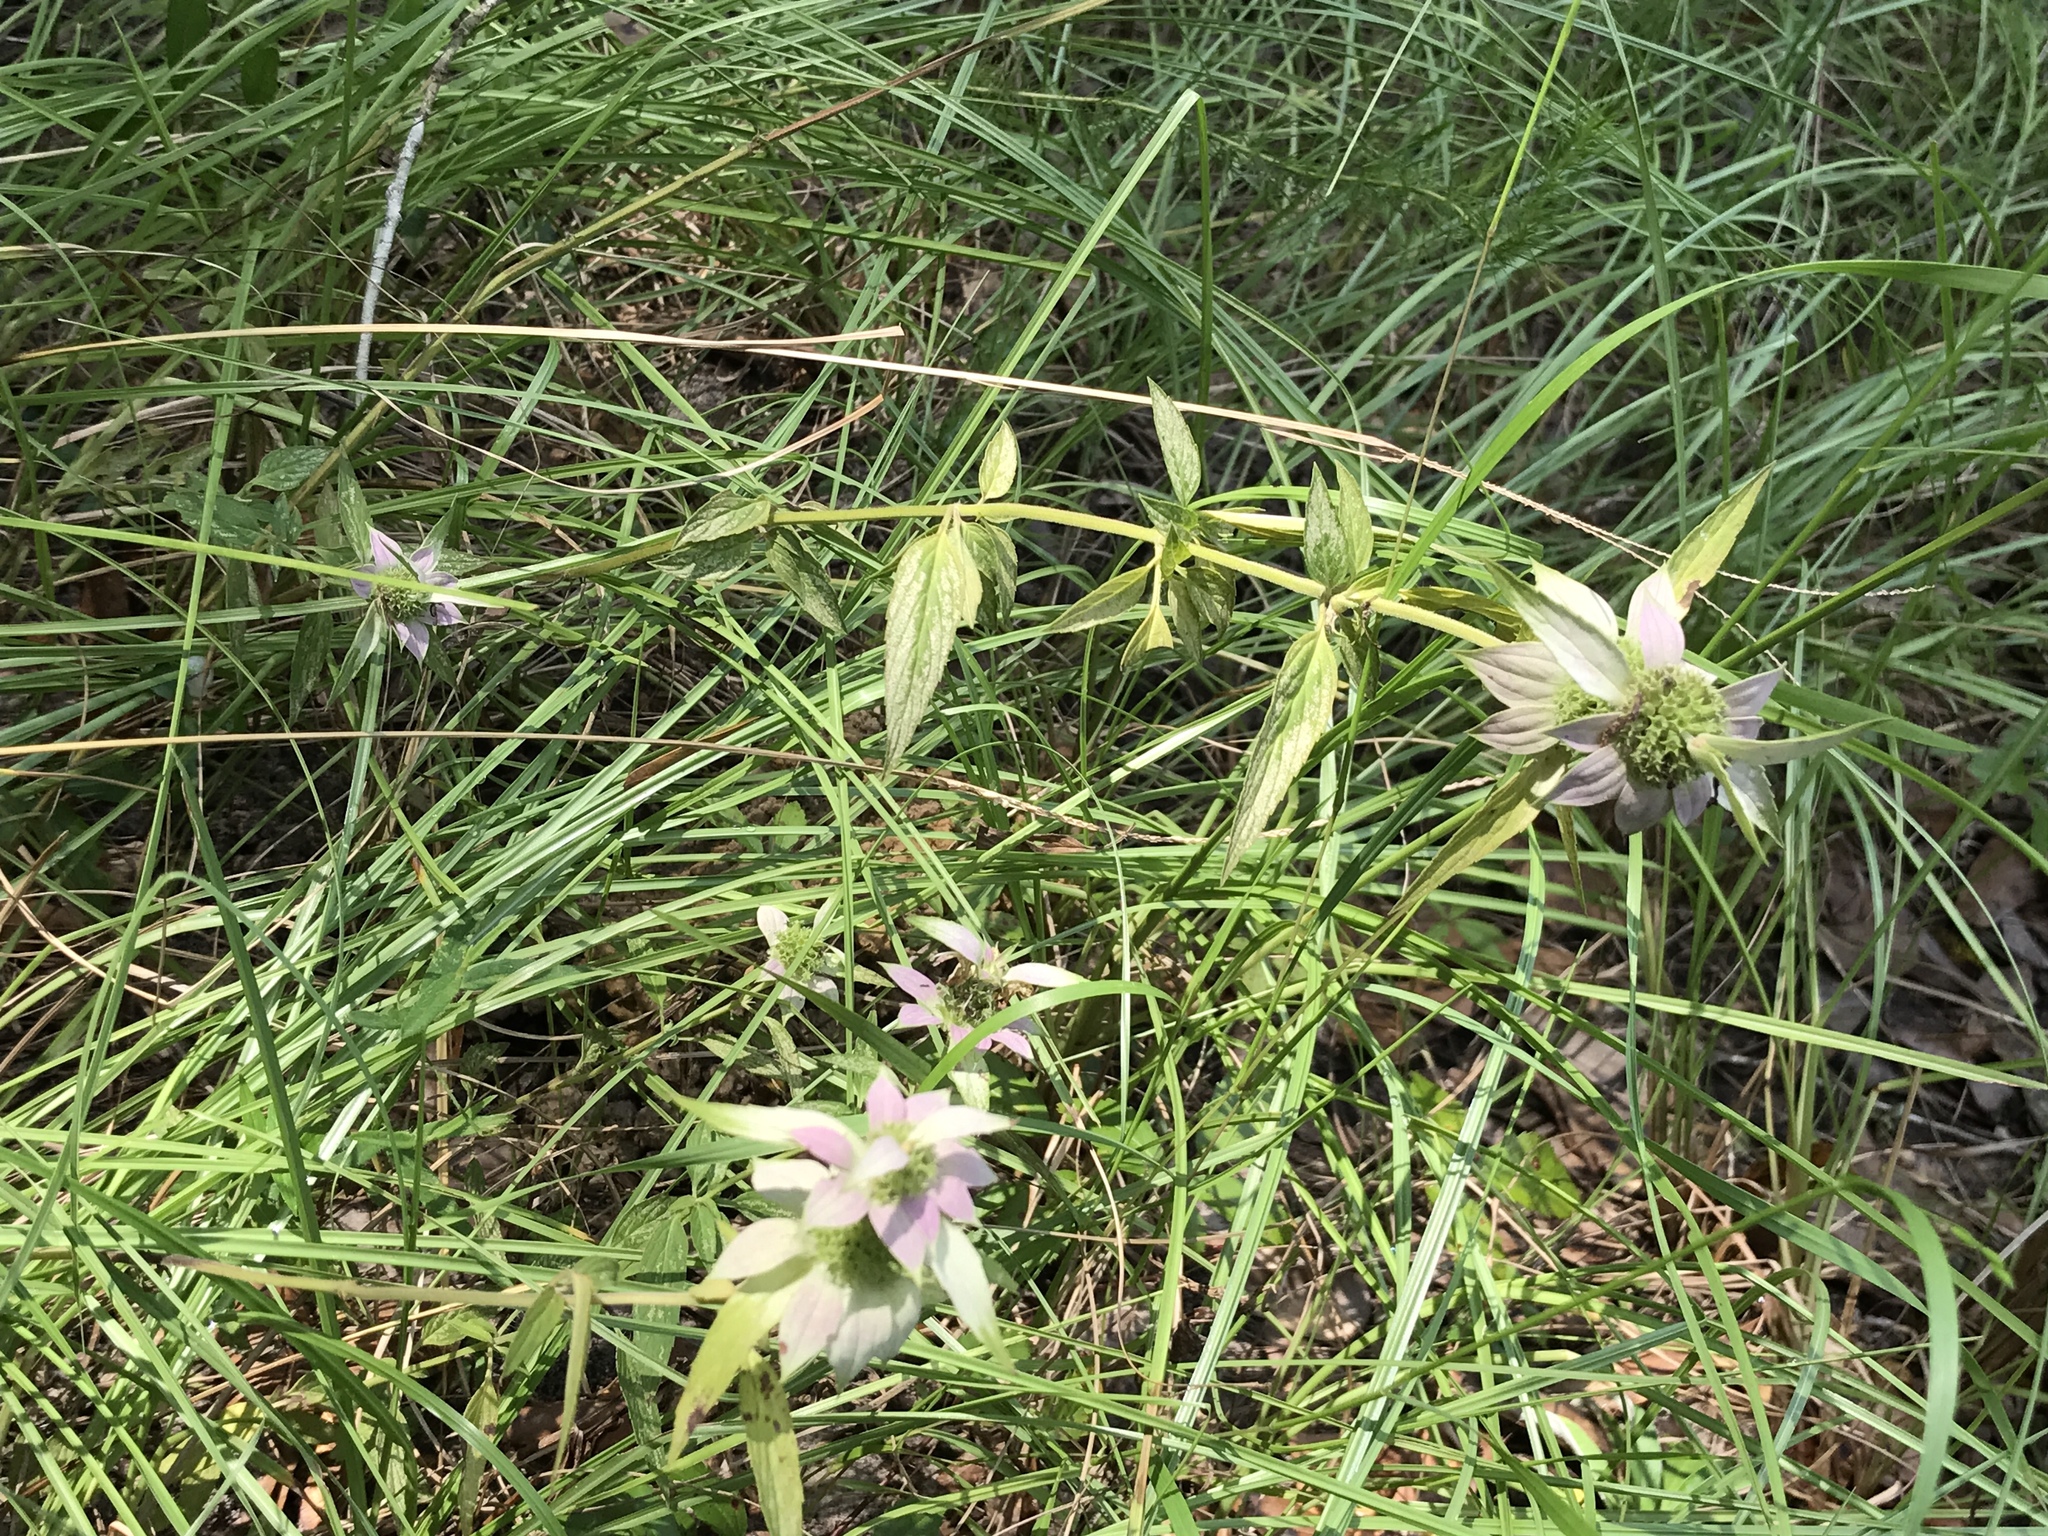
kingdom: Plantae
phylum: Tracheophyta
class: Magnoliopsida
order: Lamiales
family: Lamiaceae
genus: Monarda
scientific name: Monarda punctata
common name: Dotted monarda
